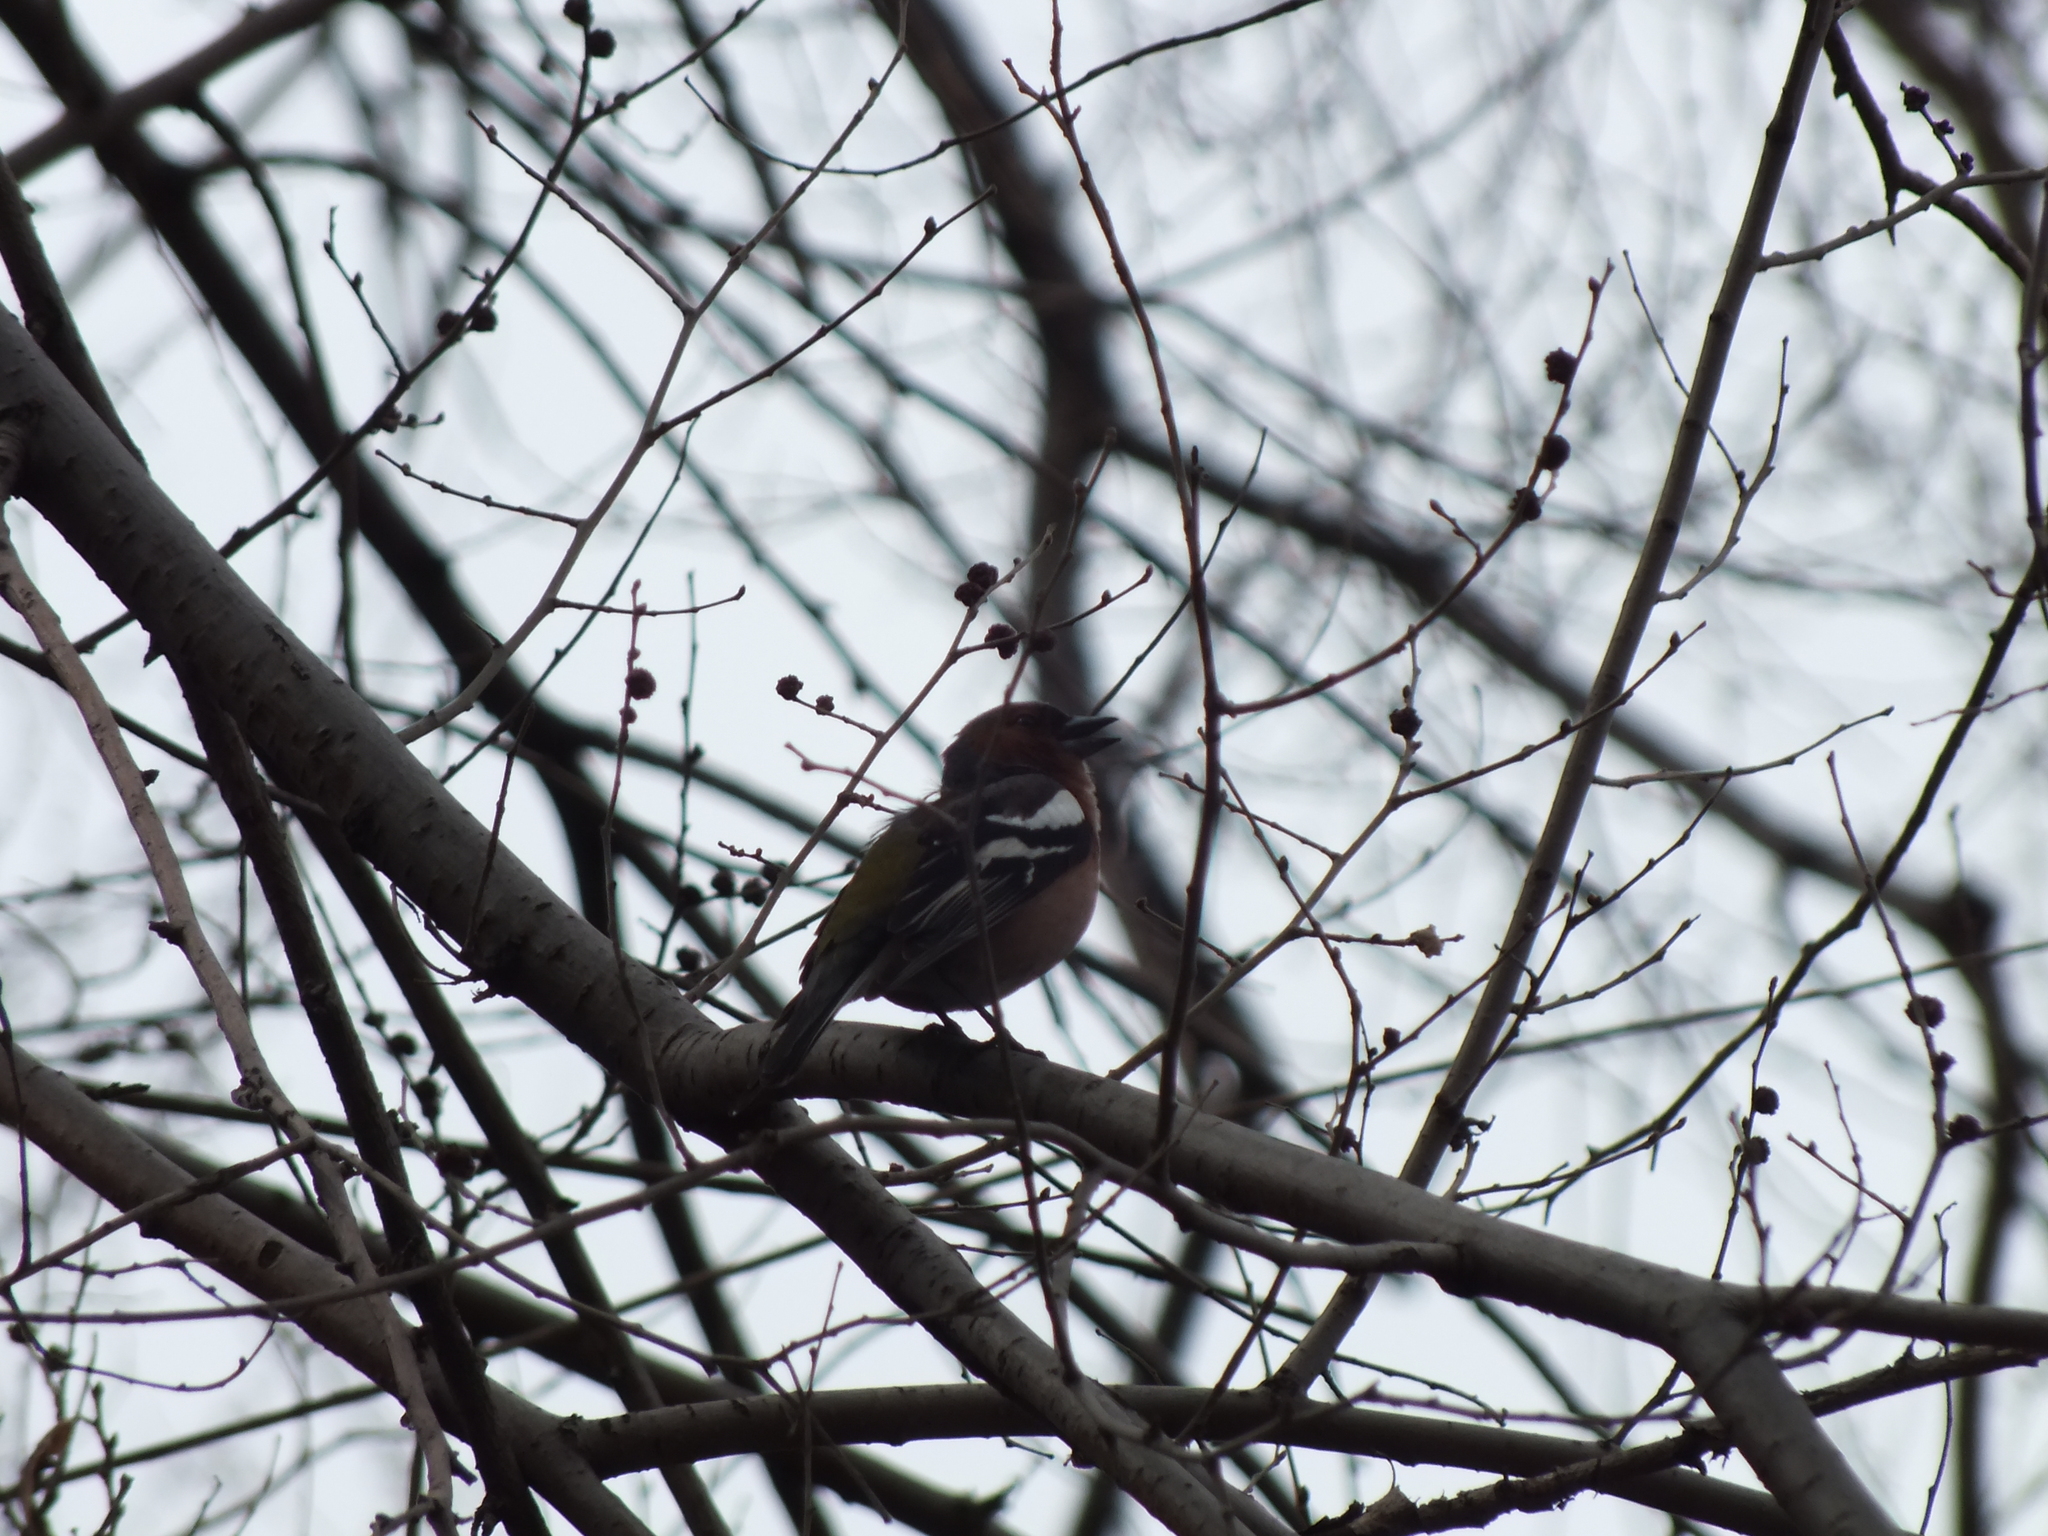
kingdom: Animalia
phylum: Chordata
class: Aves
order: Passeriformes
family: Fringillidae
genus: Fringilla
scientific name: Fringilla coelebs
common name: Common chaffinch
